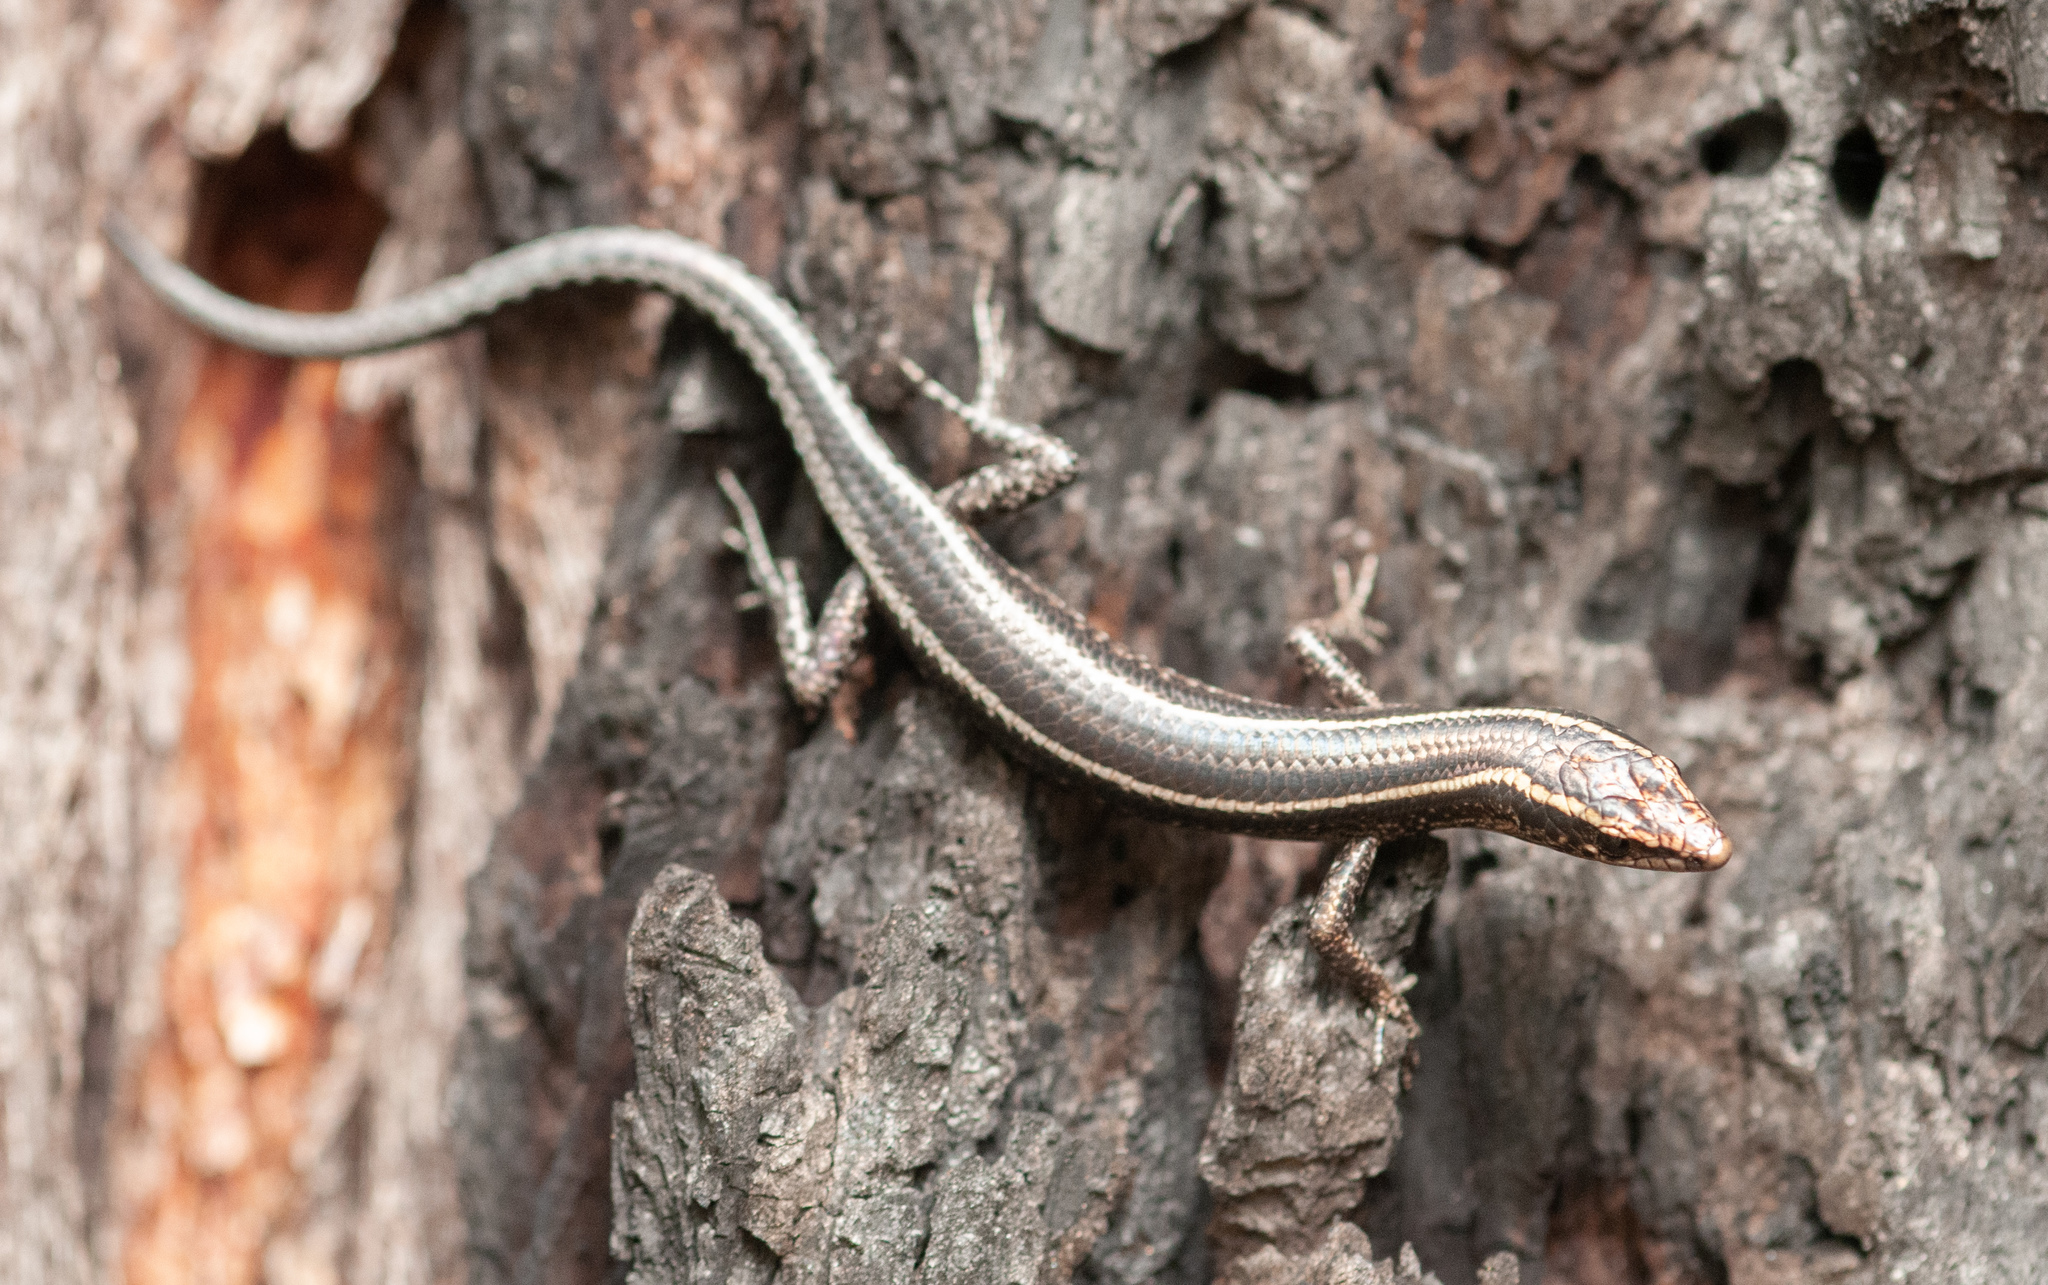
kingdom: Animalia
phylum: Chordata
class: Squamata
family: Scincidae
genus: Cryptoblepharus
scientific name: Cryptoblepharus pulcher
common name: Elegant snake-eyed skink
